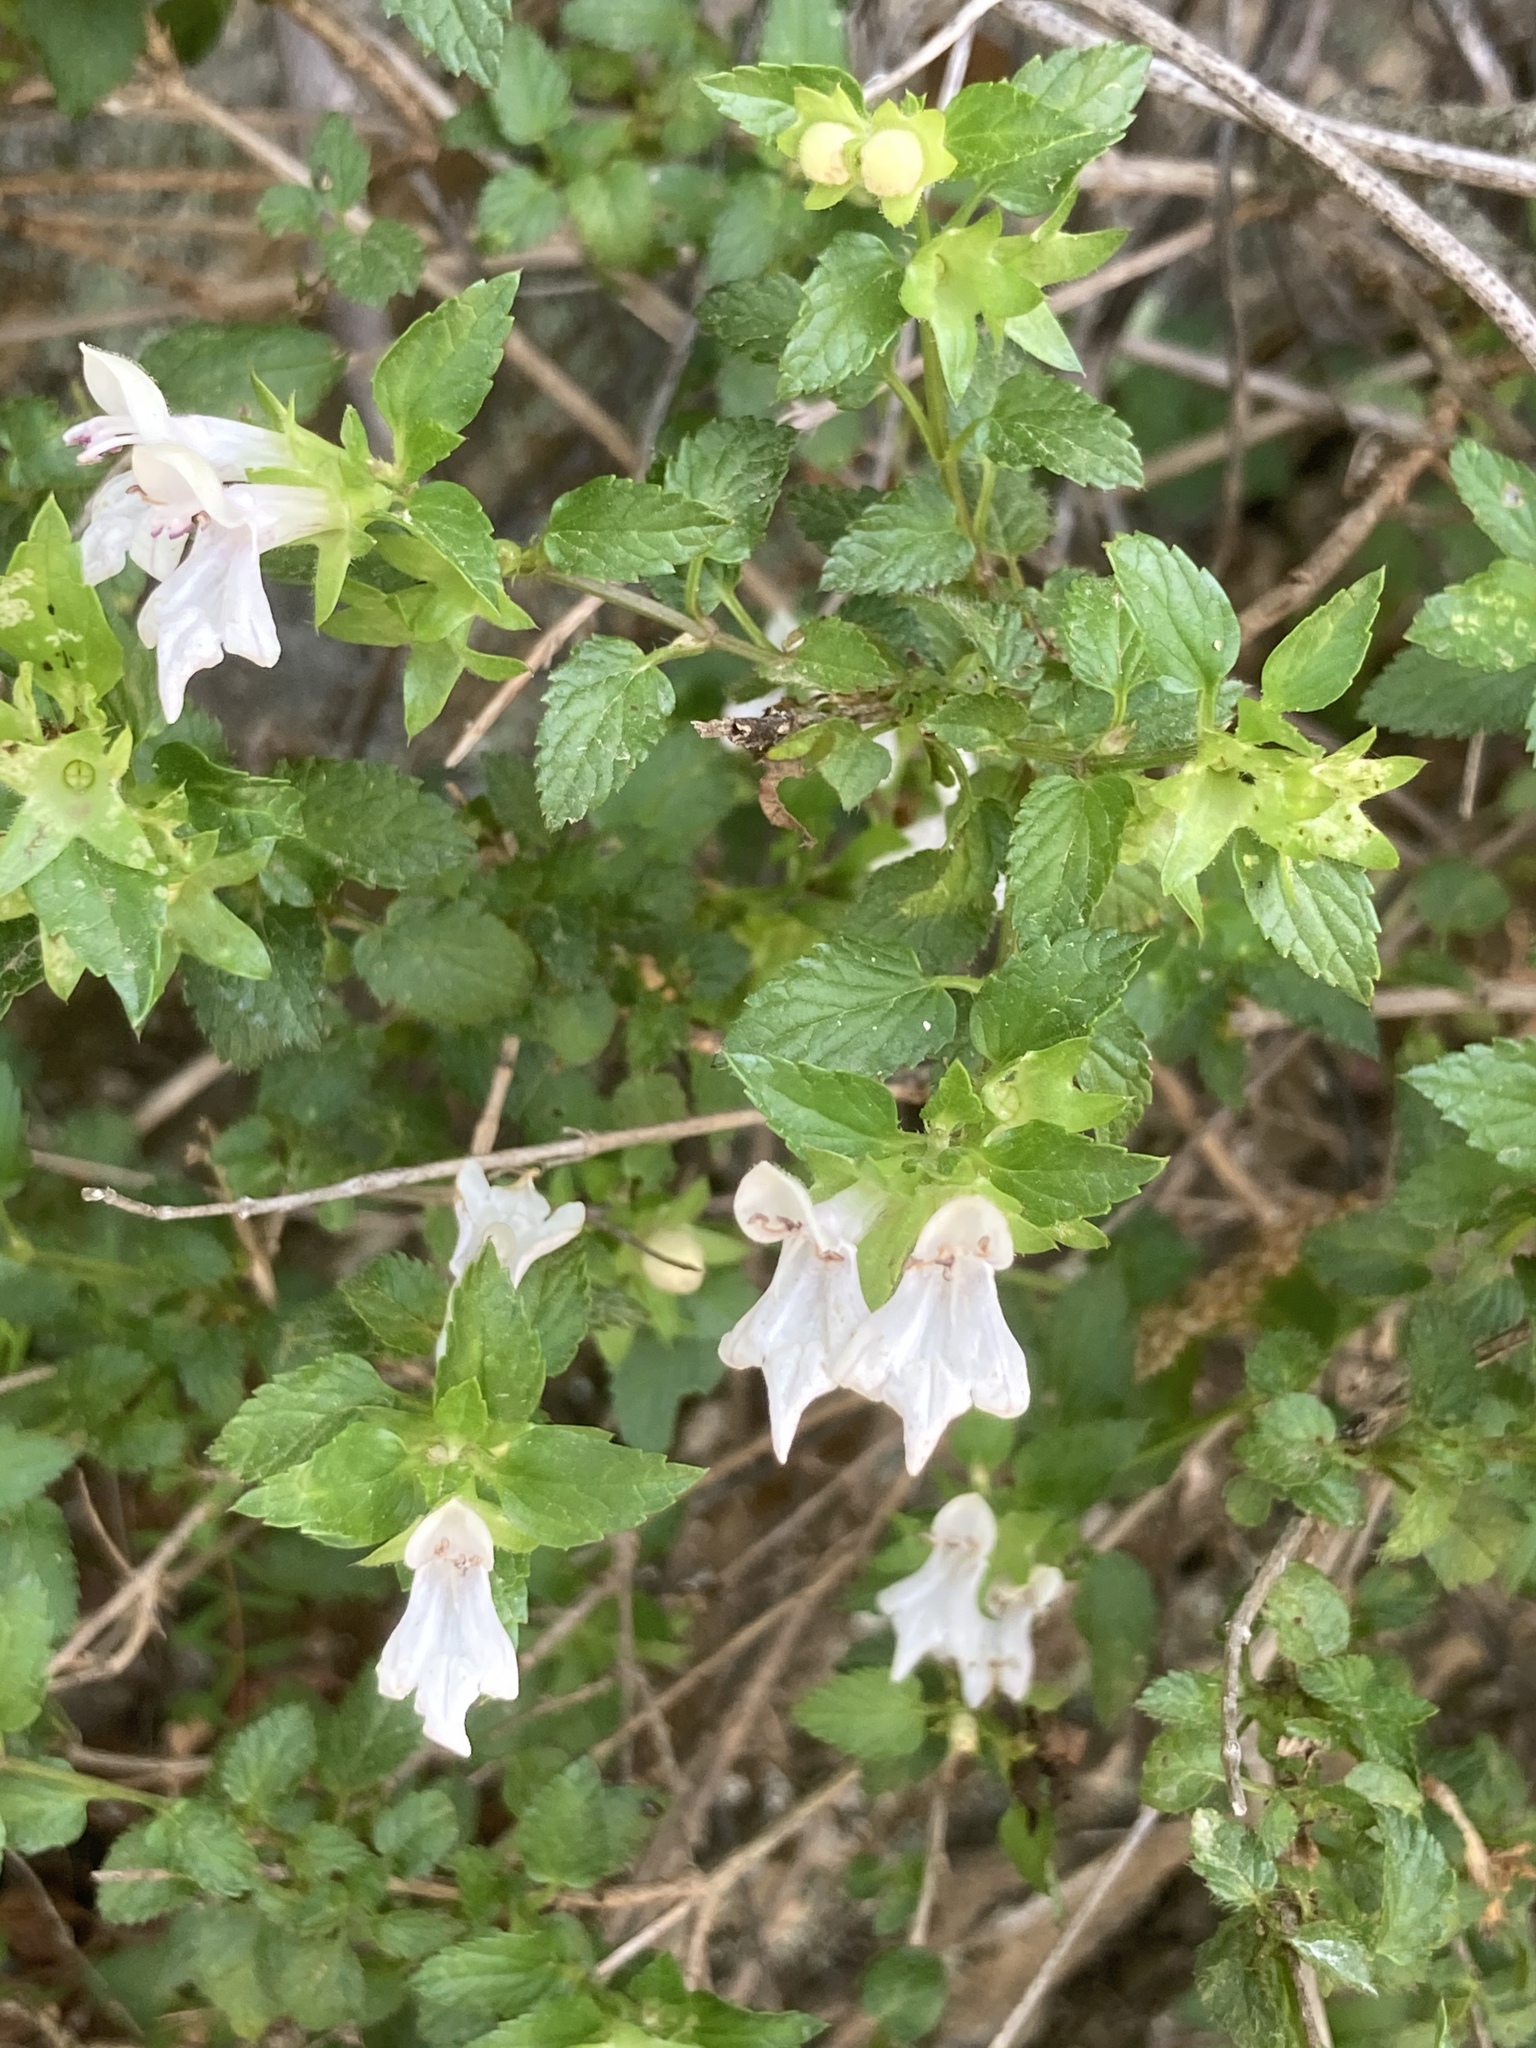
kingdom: Plantae
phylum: Tracheophyta
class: Magnoliopsida
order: Lamiales
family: Lamiaceae
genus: Prasium
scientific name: Prasium majus
